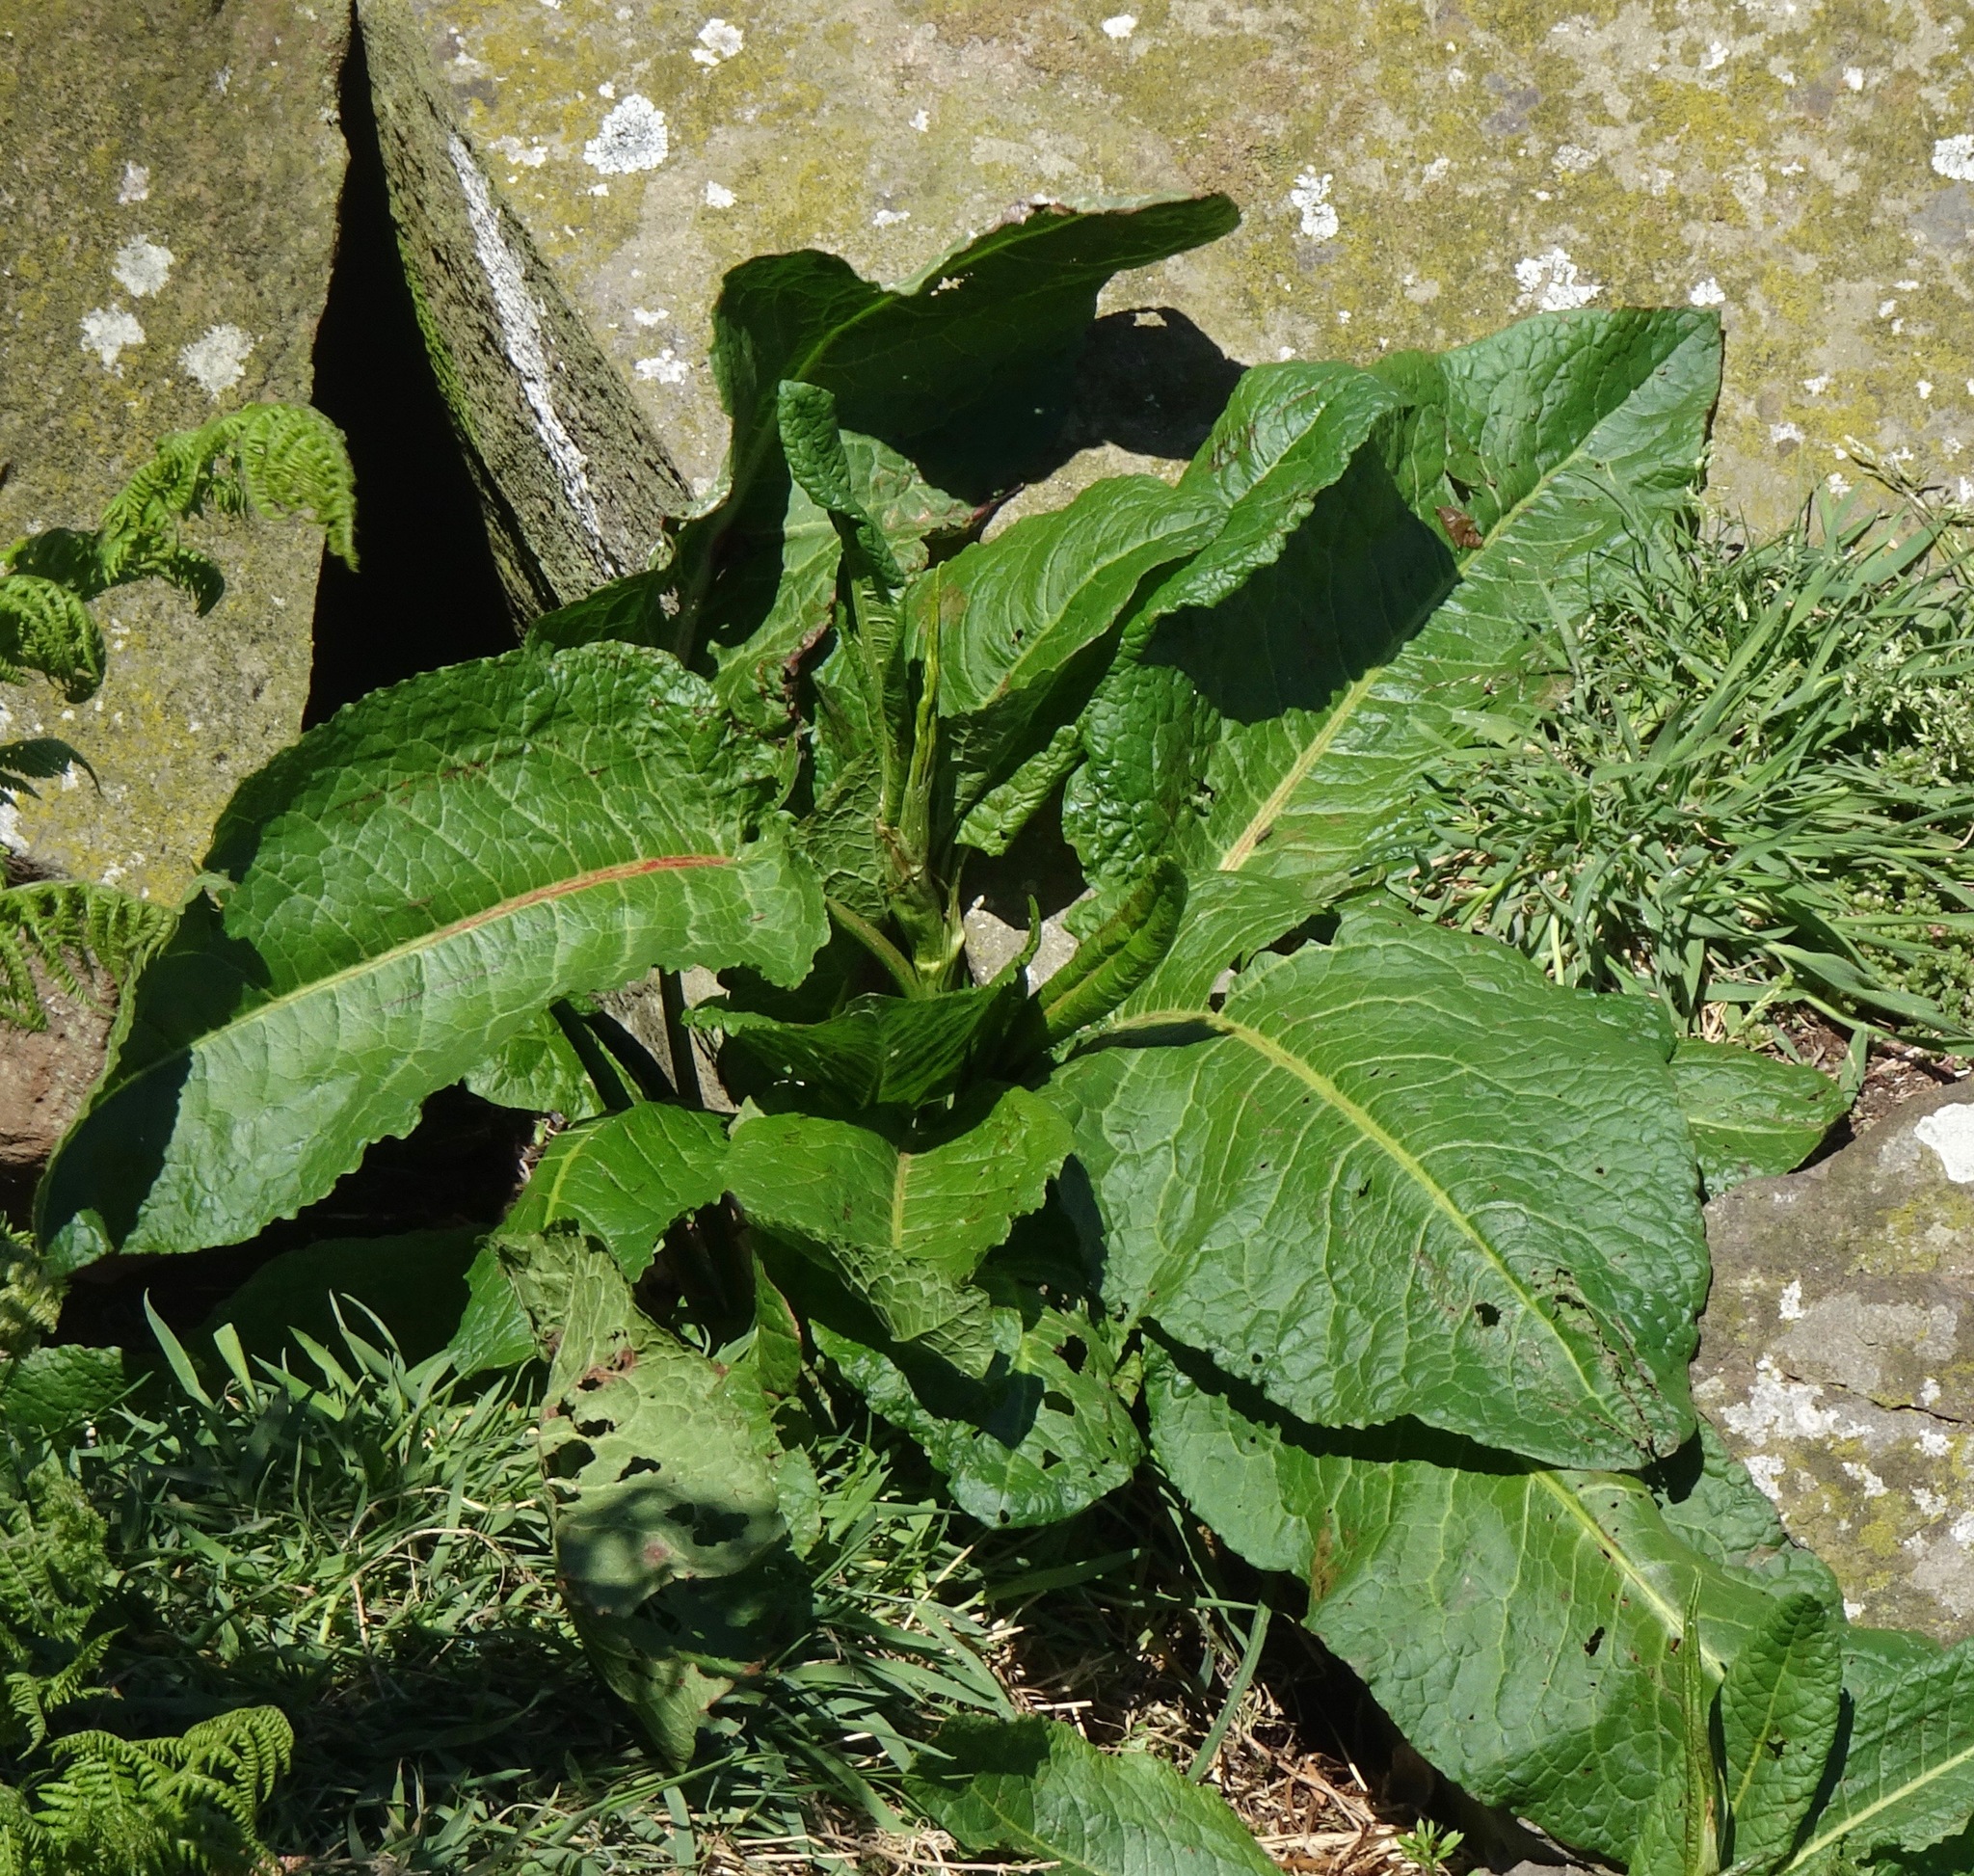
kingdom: Plantae
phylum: Tracheophyta
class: Magnoliopsida
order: Caryophyllales
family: Polygonaceae
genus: Rumex
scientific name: Rumex obtusifolius
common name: Bitter dock
